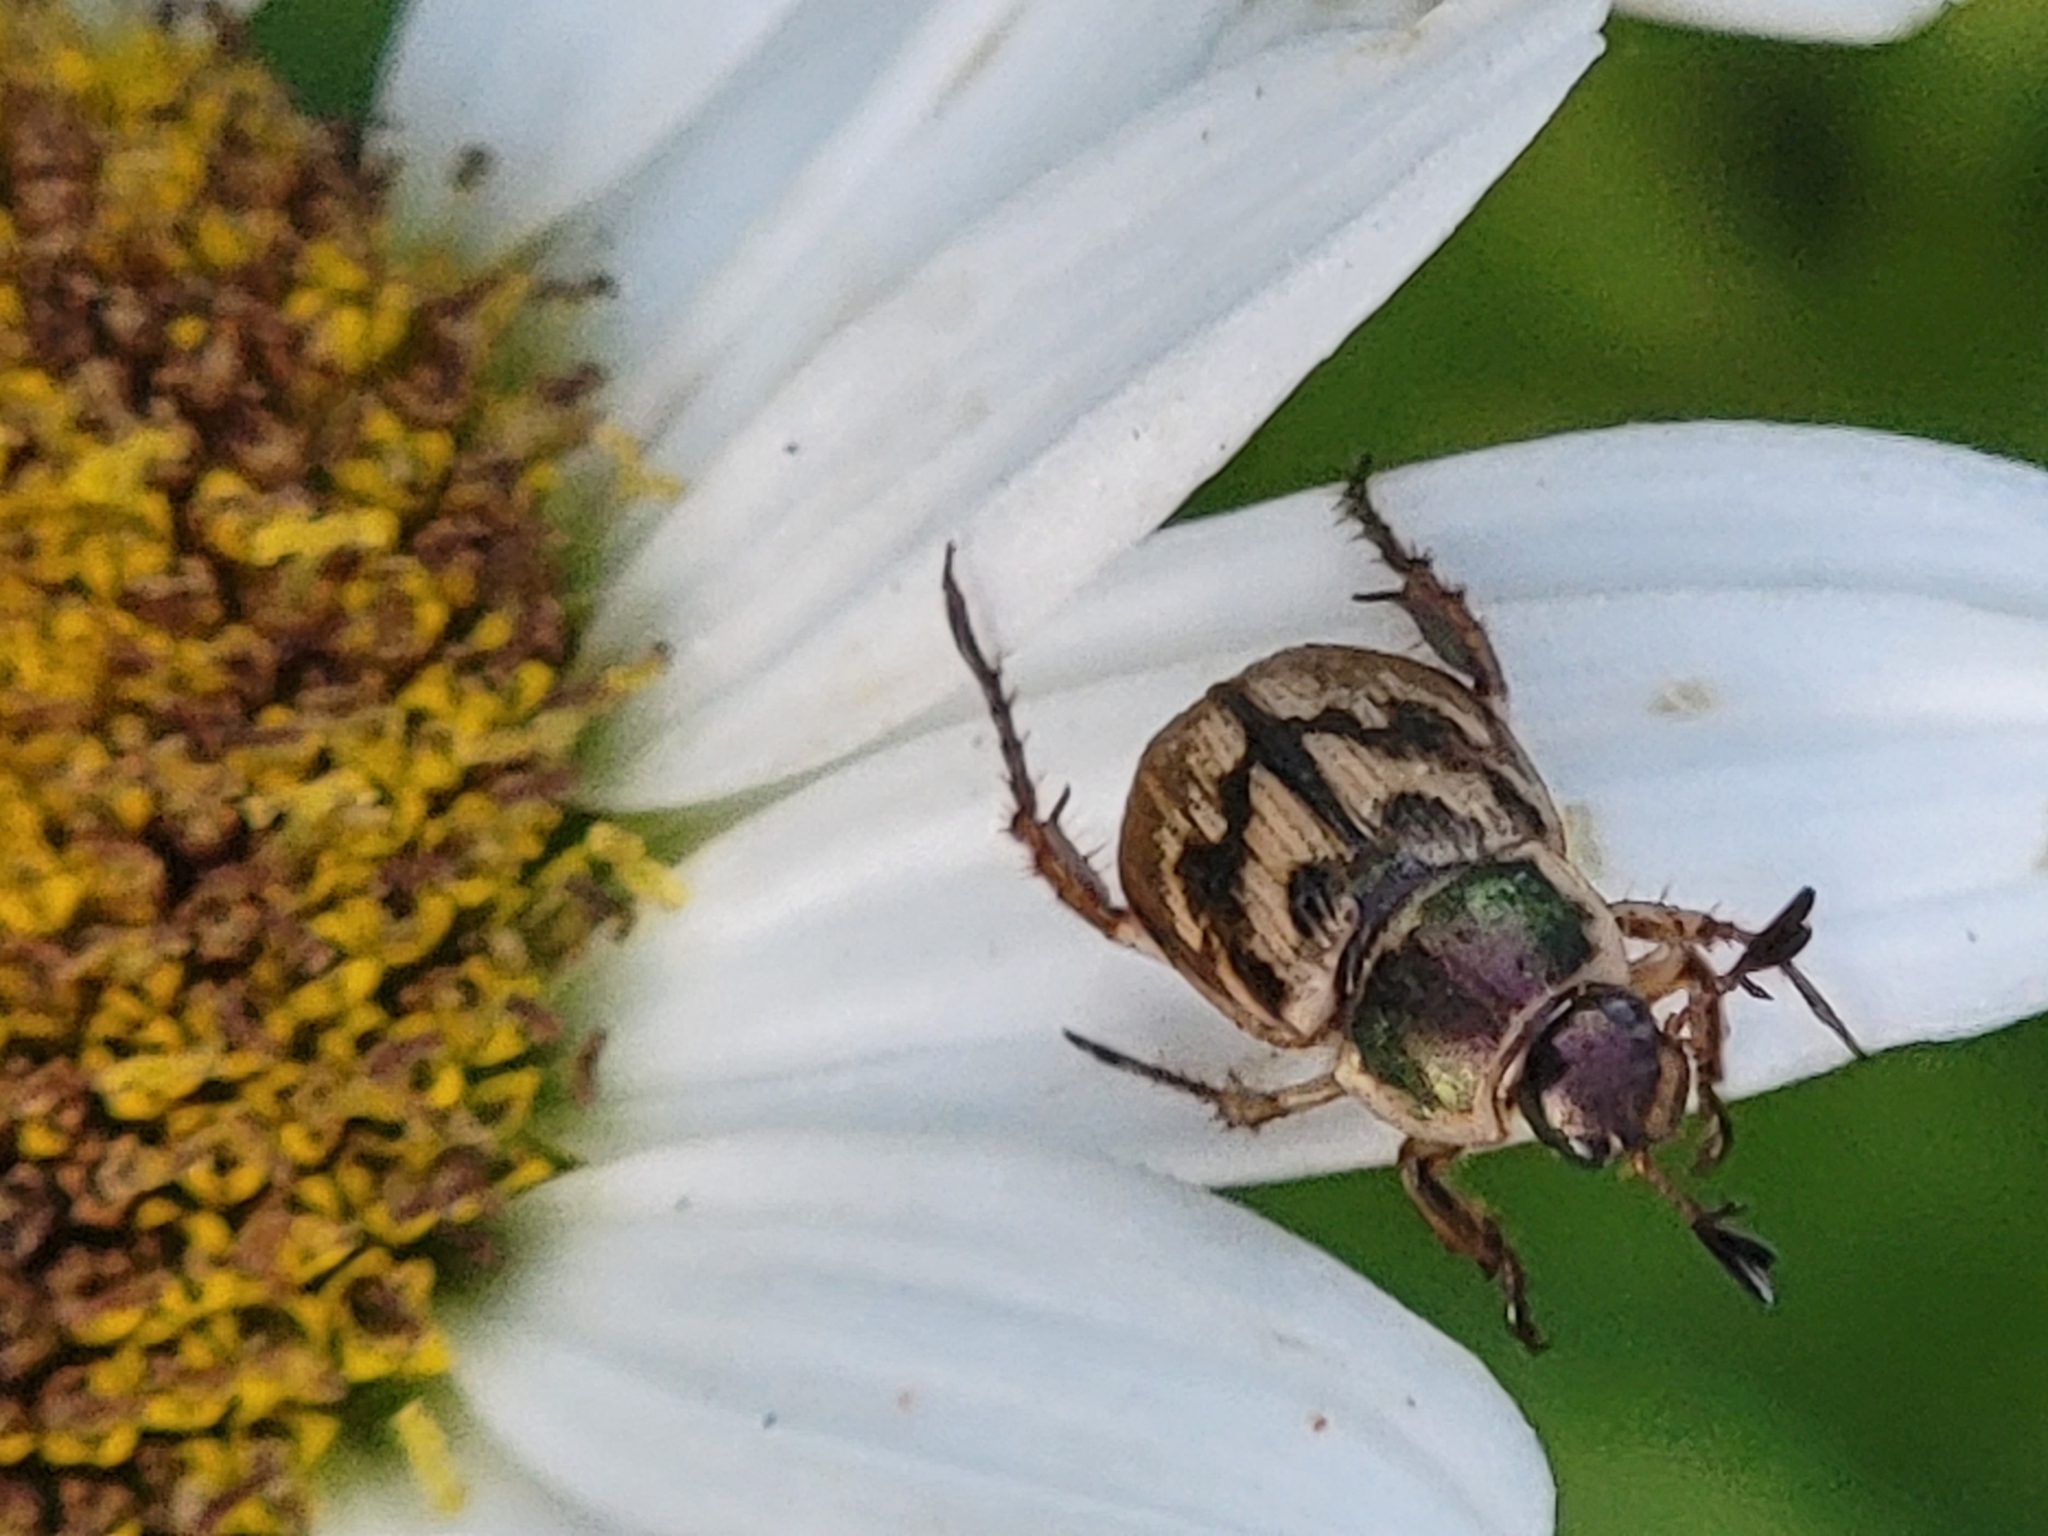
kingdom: Animalia
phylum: Arthropoda
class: Insecta
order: Coleoptera
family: Scarabaeidae
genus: Exomala
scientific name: Exomala orientalis
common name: Oriental beetle
